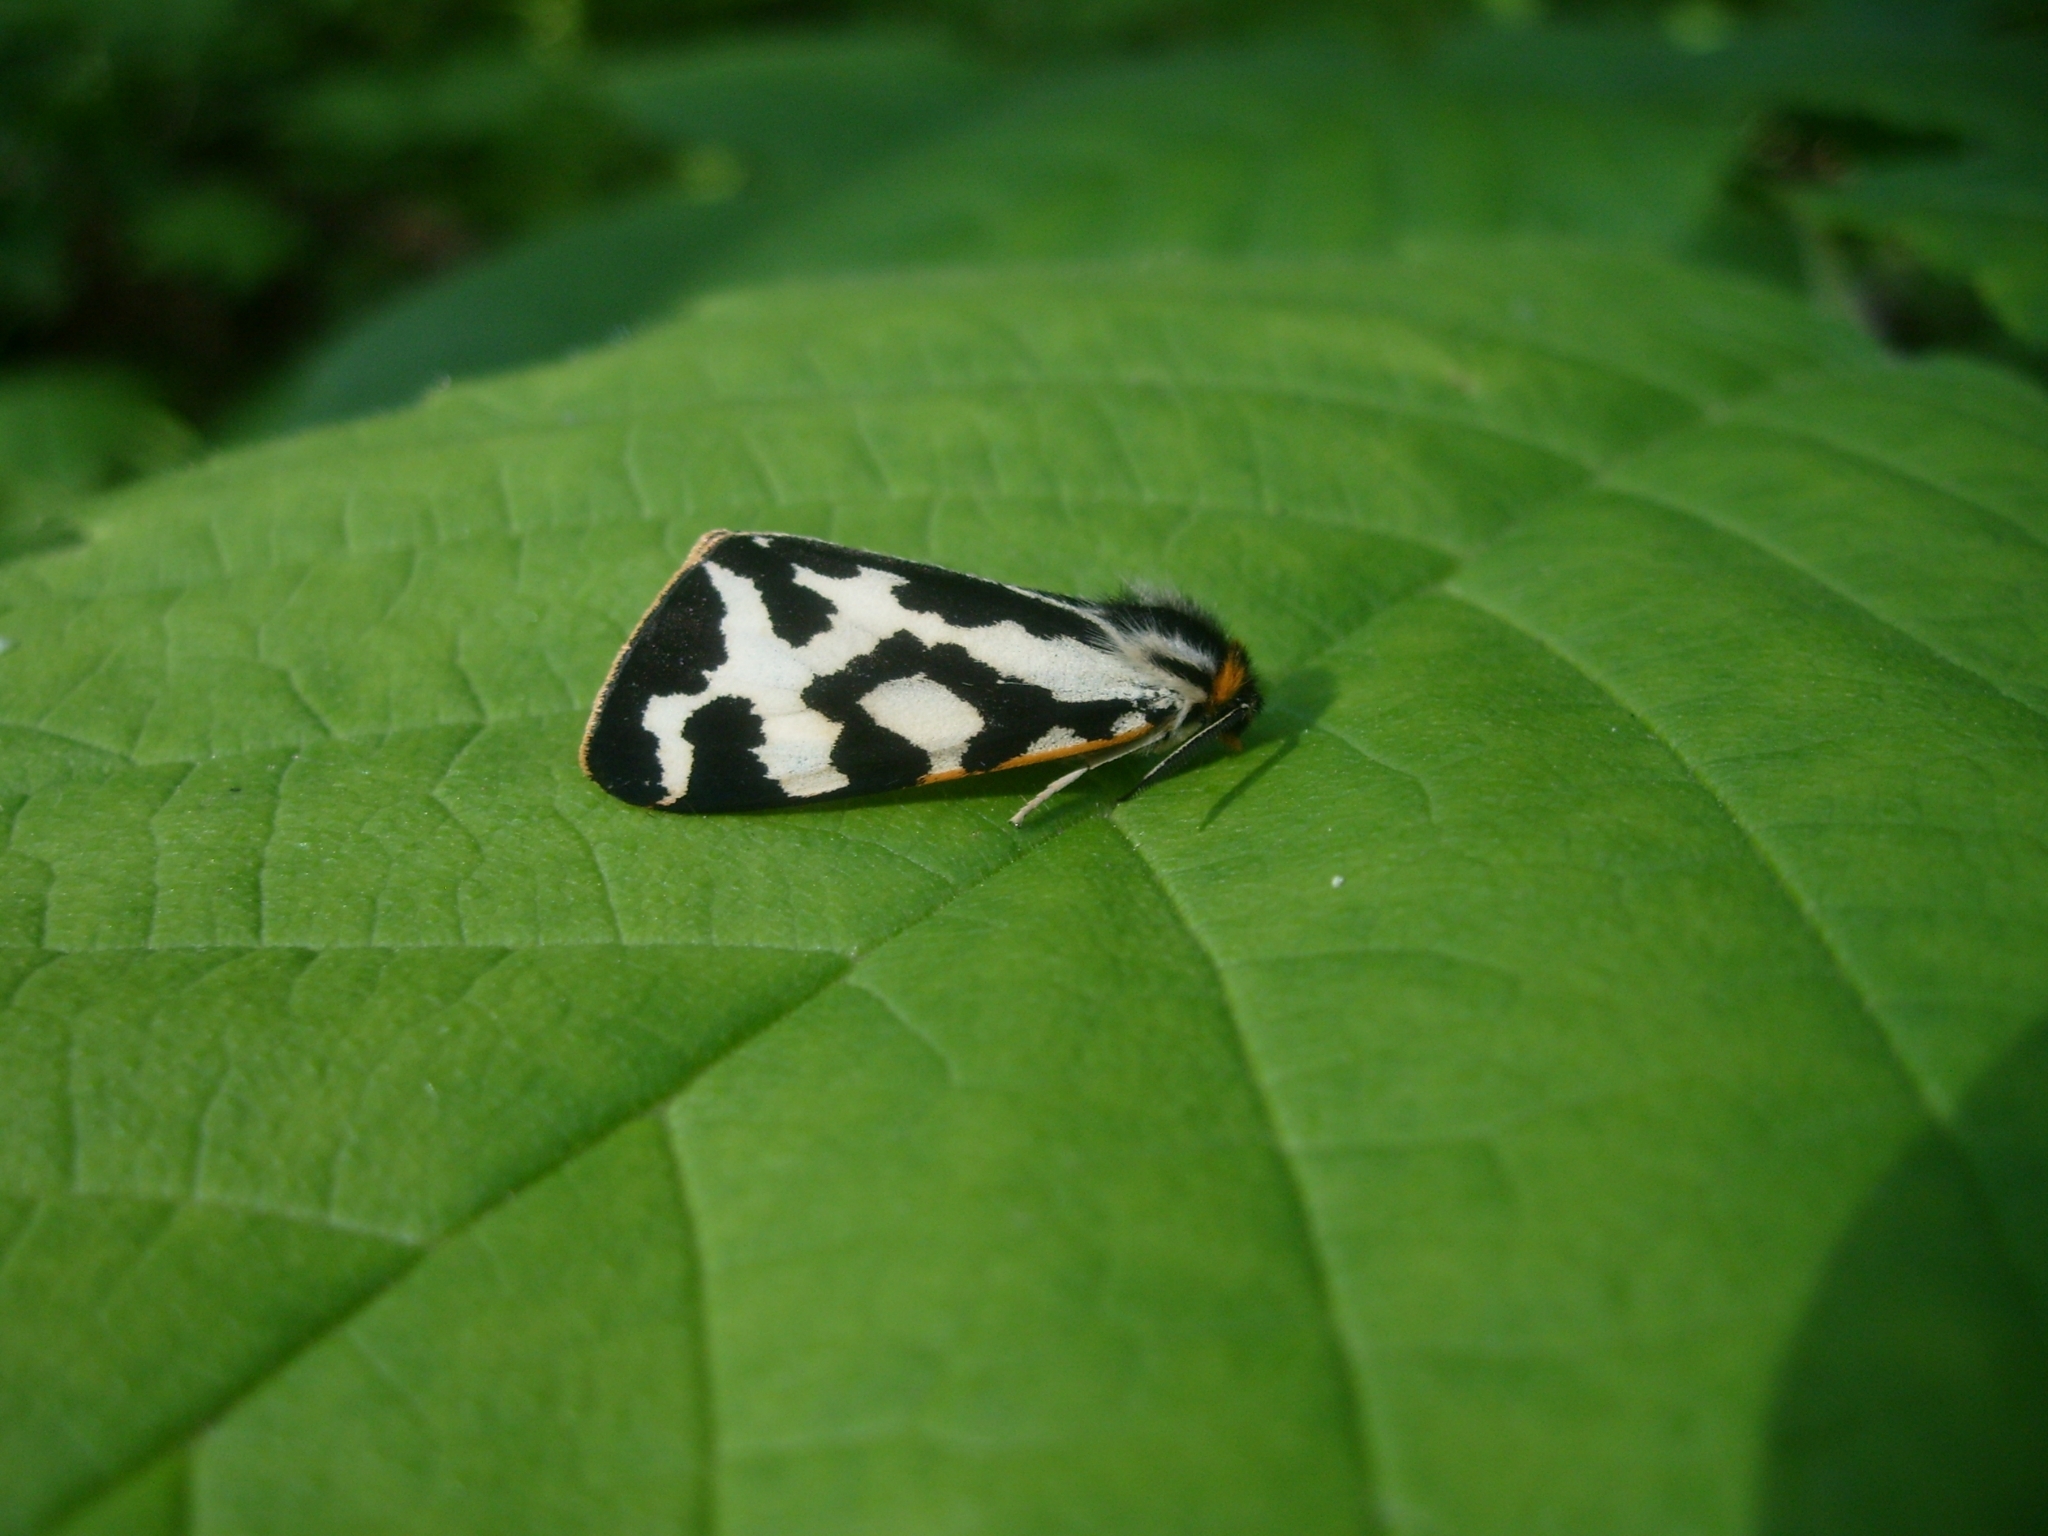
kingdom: Animalia
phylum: Arthropoda
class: Insecta
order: Lepidoptera
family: Erebidae
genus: Parasemia
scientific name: Parasemia plantaginis
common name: Wood tiger
